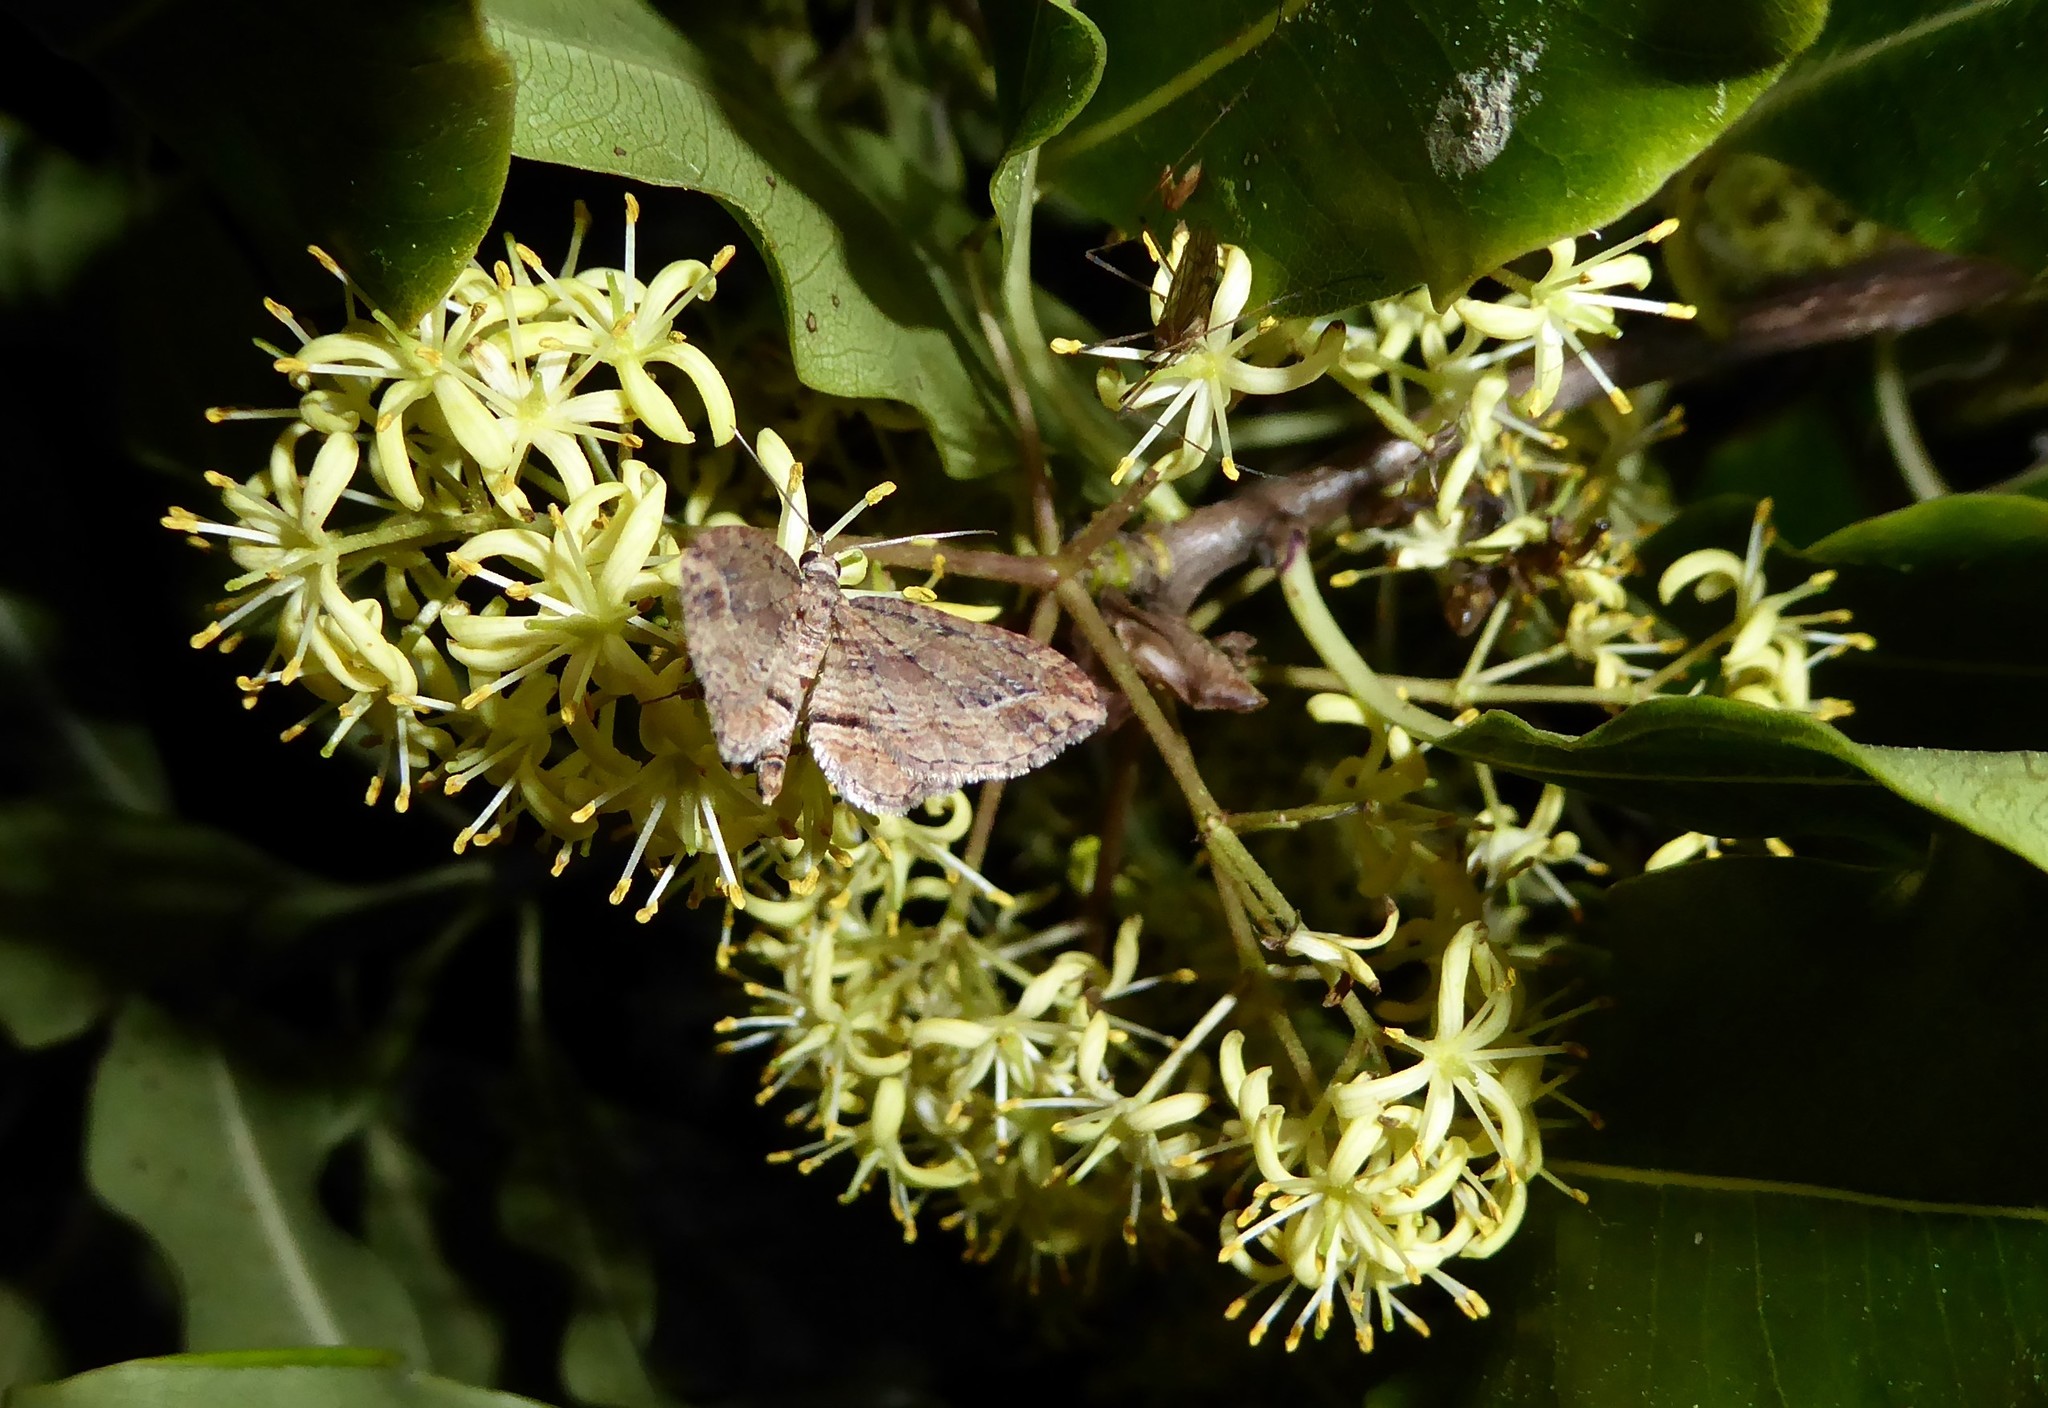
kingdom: Animalia
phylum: Arthropoda
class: Insecta
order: Lepidoptera
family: Geometridae
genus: Chloroclystis
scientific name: Chloroclystis filata
